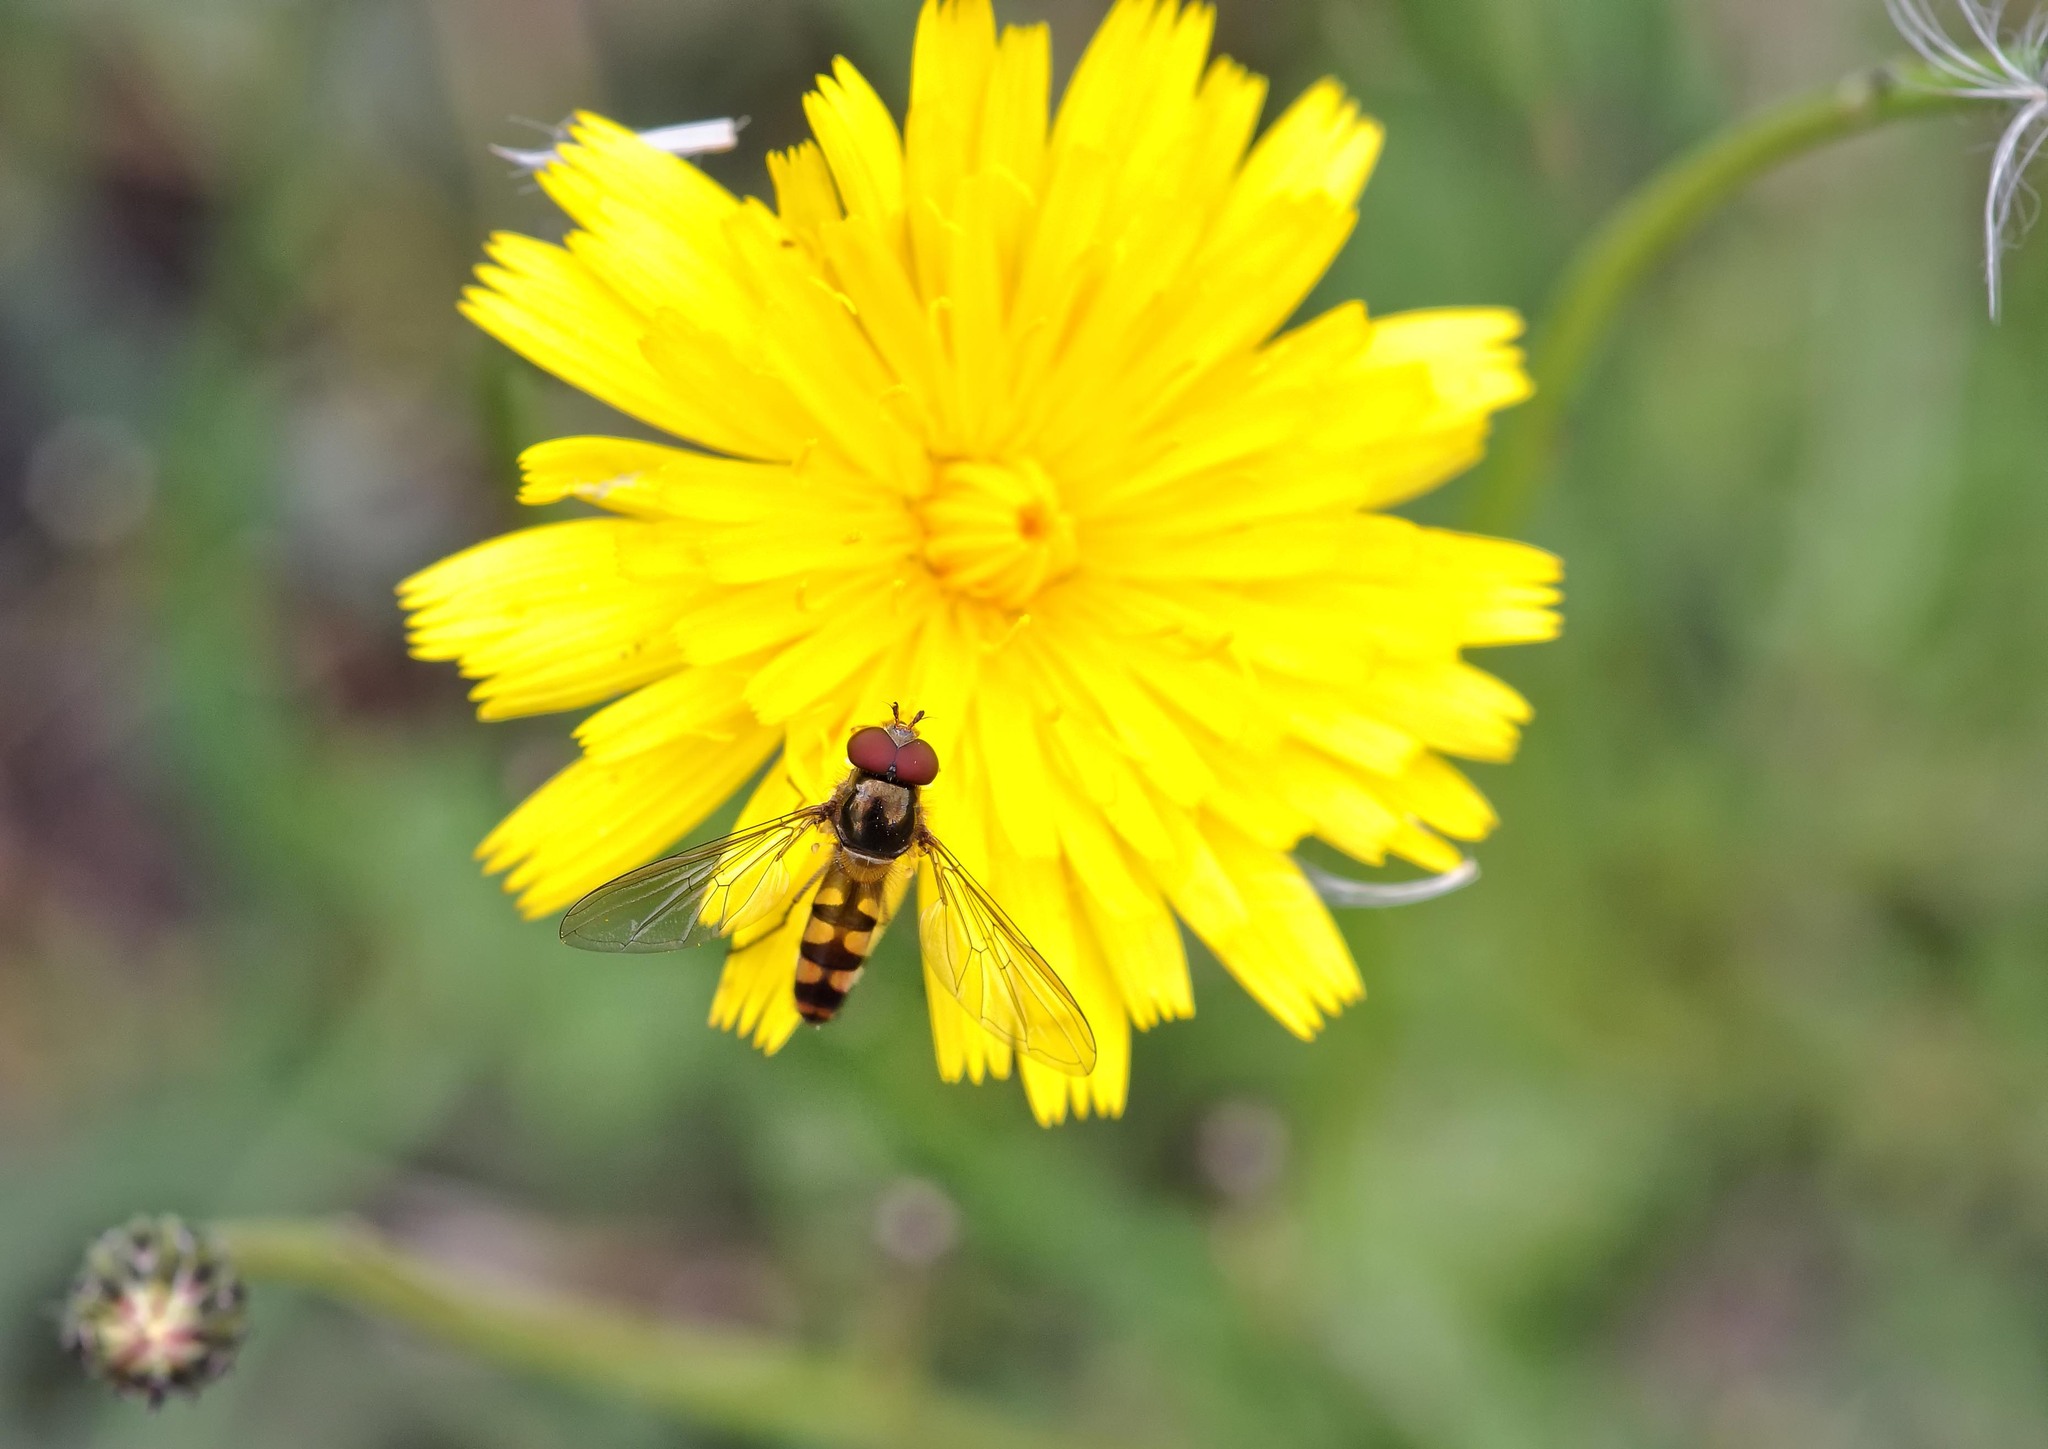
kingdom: Animalia
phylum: Arthropoda
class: Insecta
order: Diptera
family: Syrphidae
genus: Meliscaeva
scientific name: Meliscaeva auricollis
